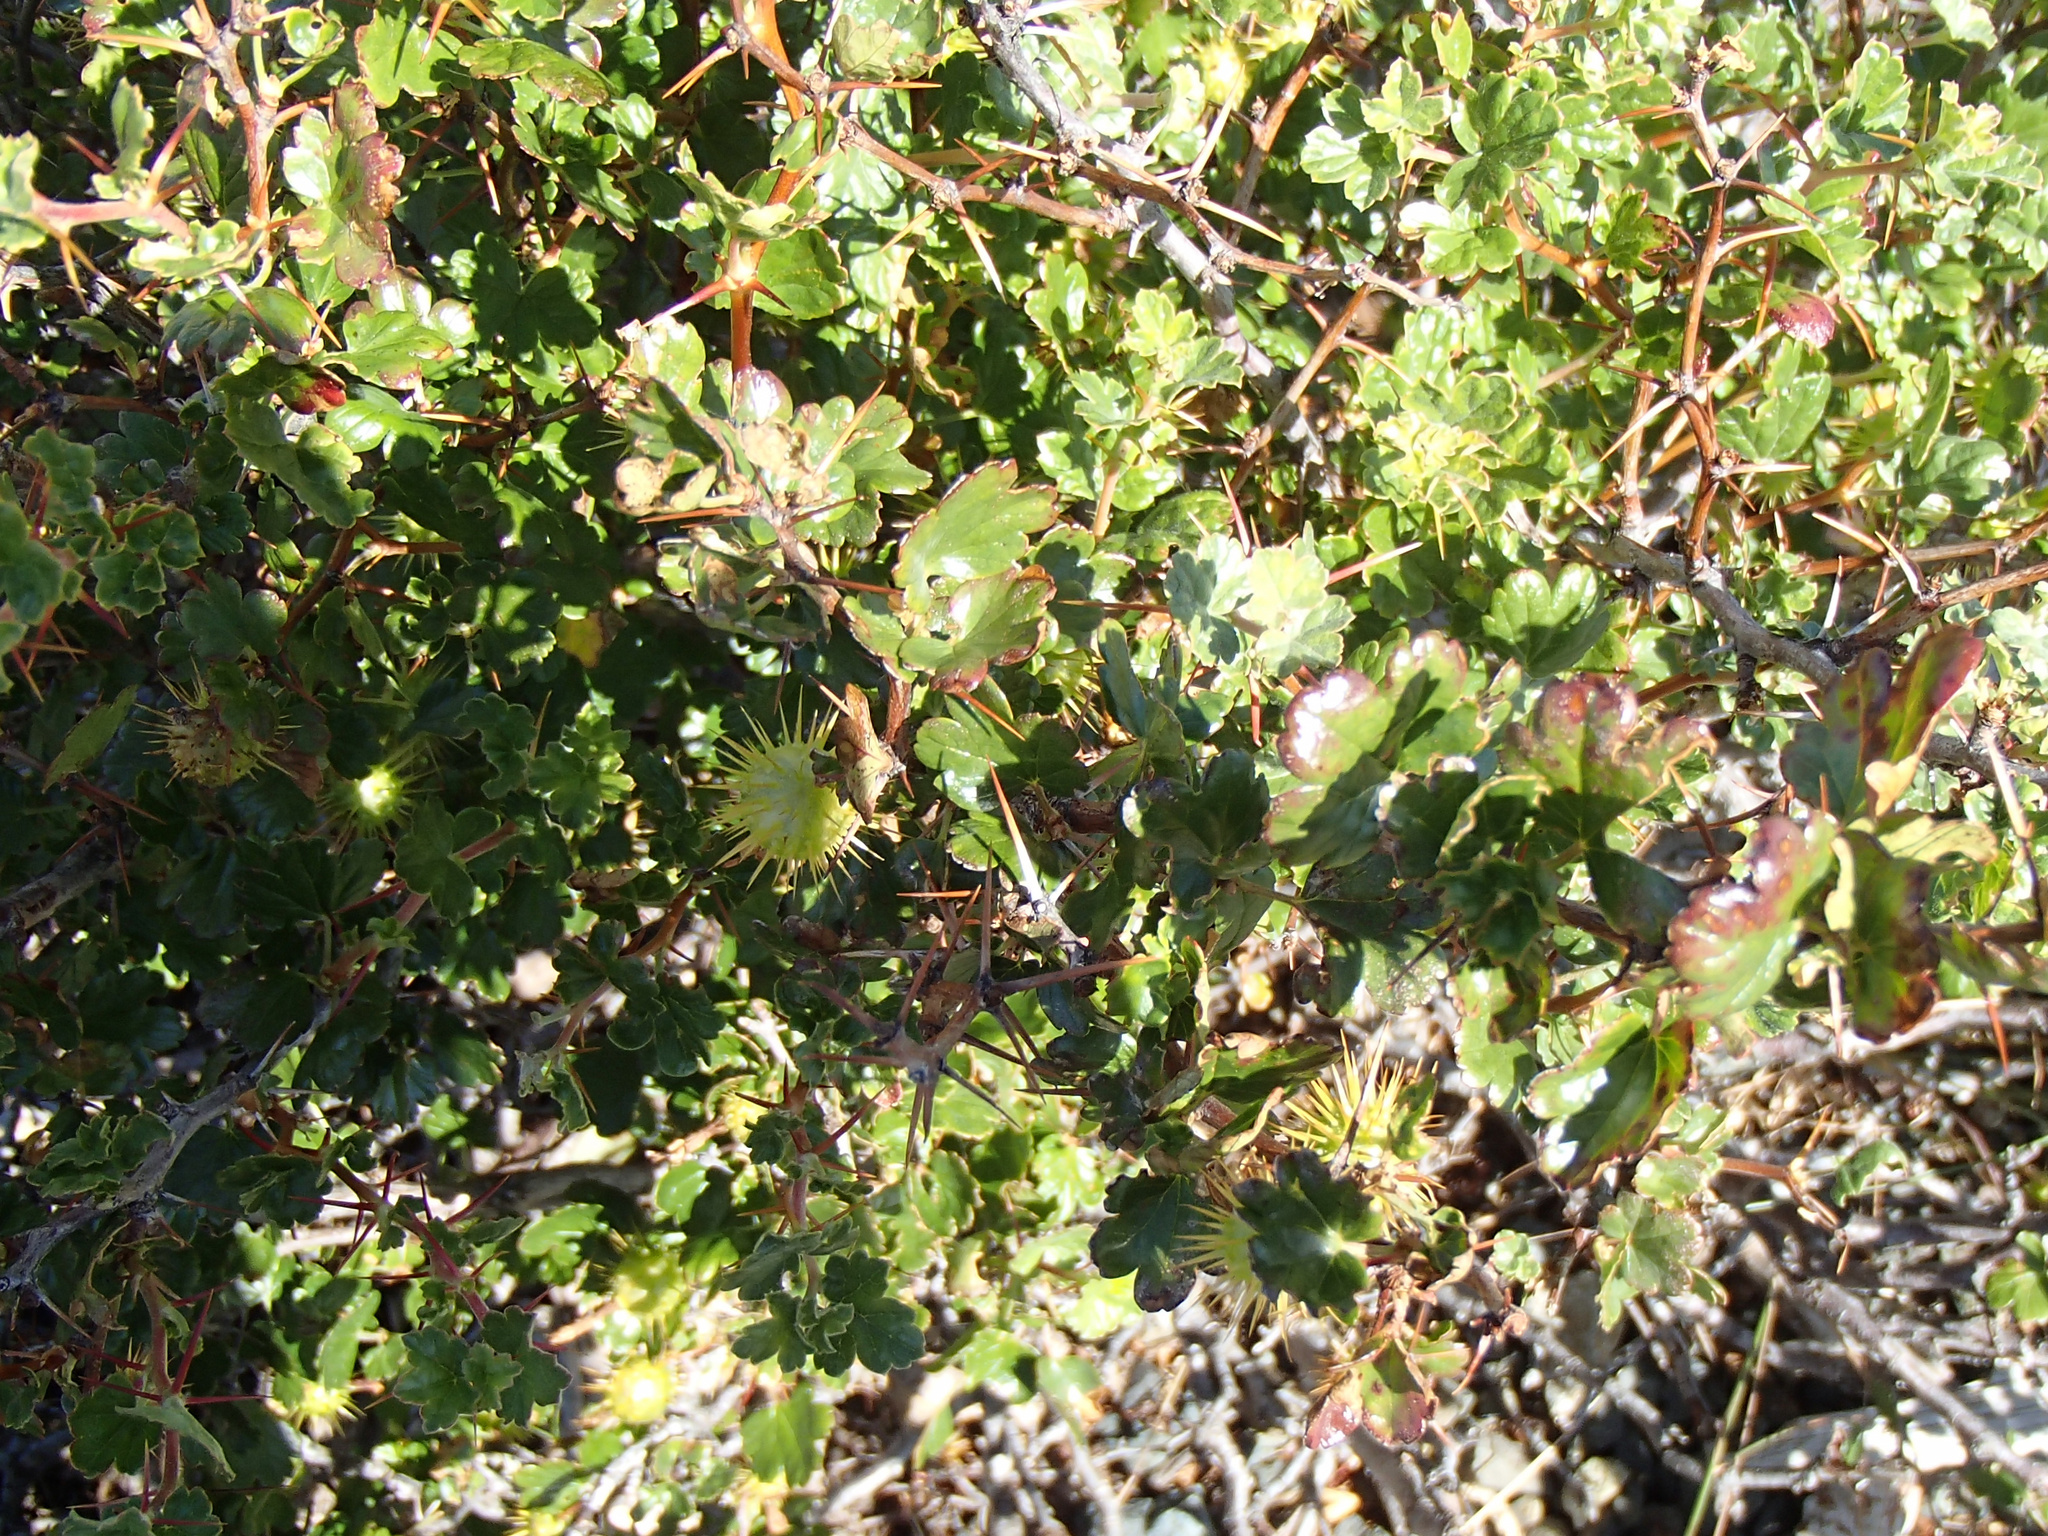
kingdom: Plantae
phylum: Tracheophyta
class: Magnoliopsida
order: Saxifragales
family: Grossulariaceae
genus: Ribes
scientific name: Ribes roezlii
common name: Sierra gooseberry
